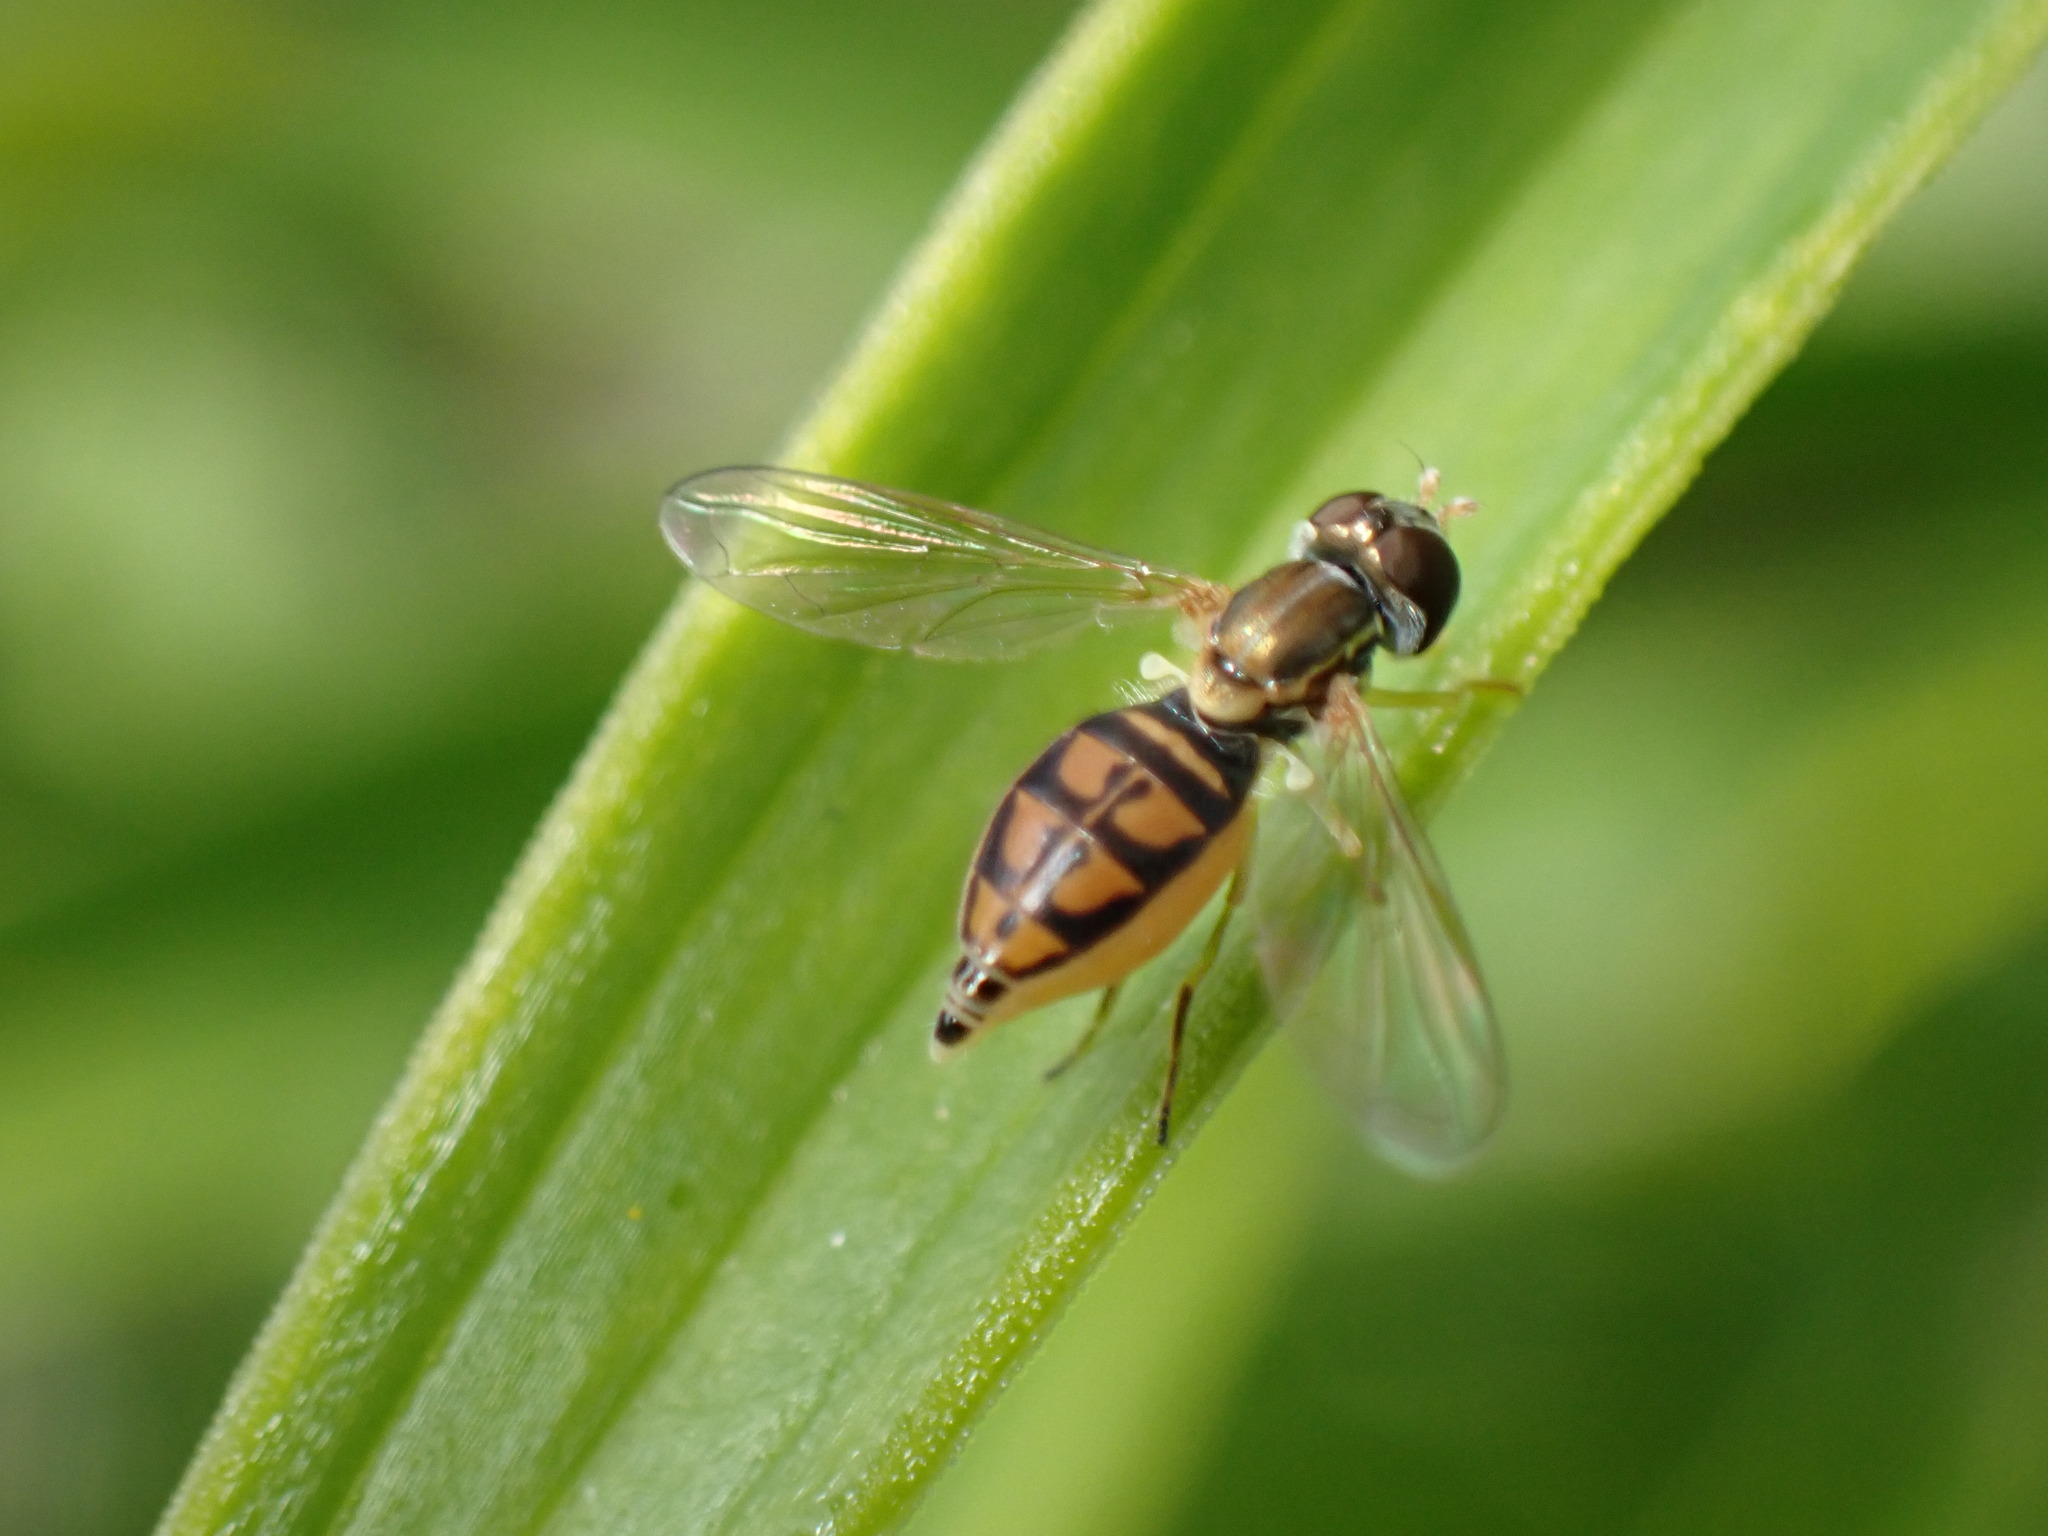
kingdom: Animalia
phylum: Arthropoda
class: Insecta
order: Diptera
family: Syrphidae
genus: Toxomerus
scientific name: Toxomerus marginatus
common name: Syrphid fly
